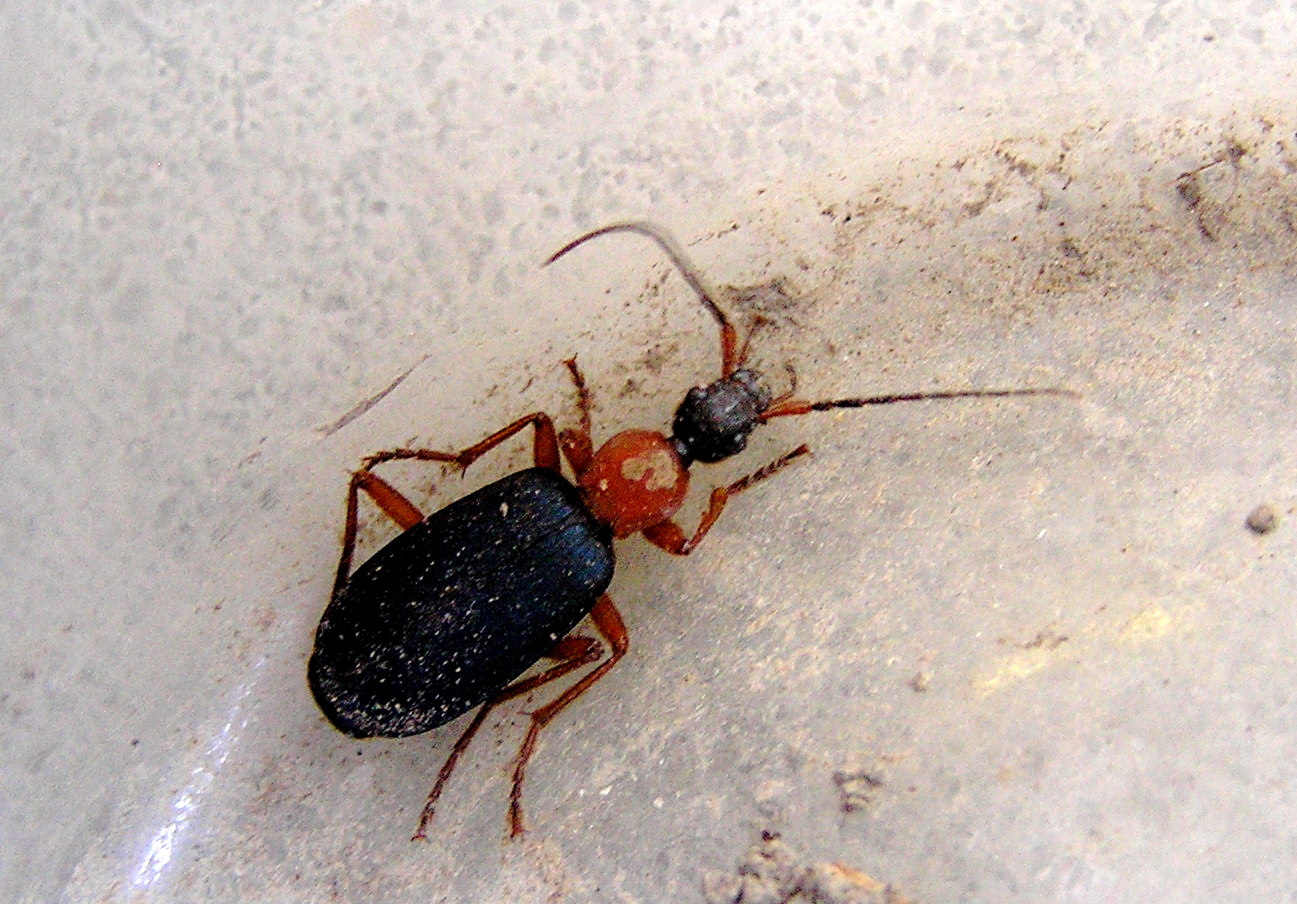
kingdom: Animalia
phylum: Arthropoda
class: Insecta
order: Coleoptera
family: Carabidae
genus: Galerita
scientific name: Galerita janus
